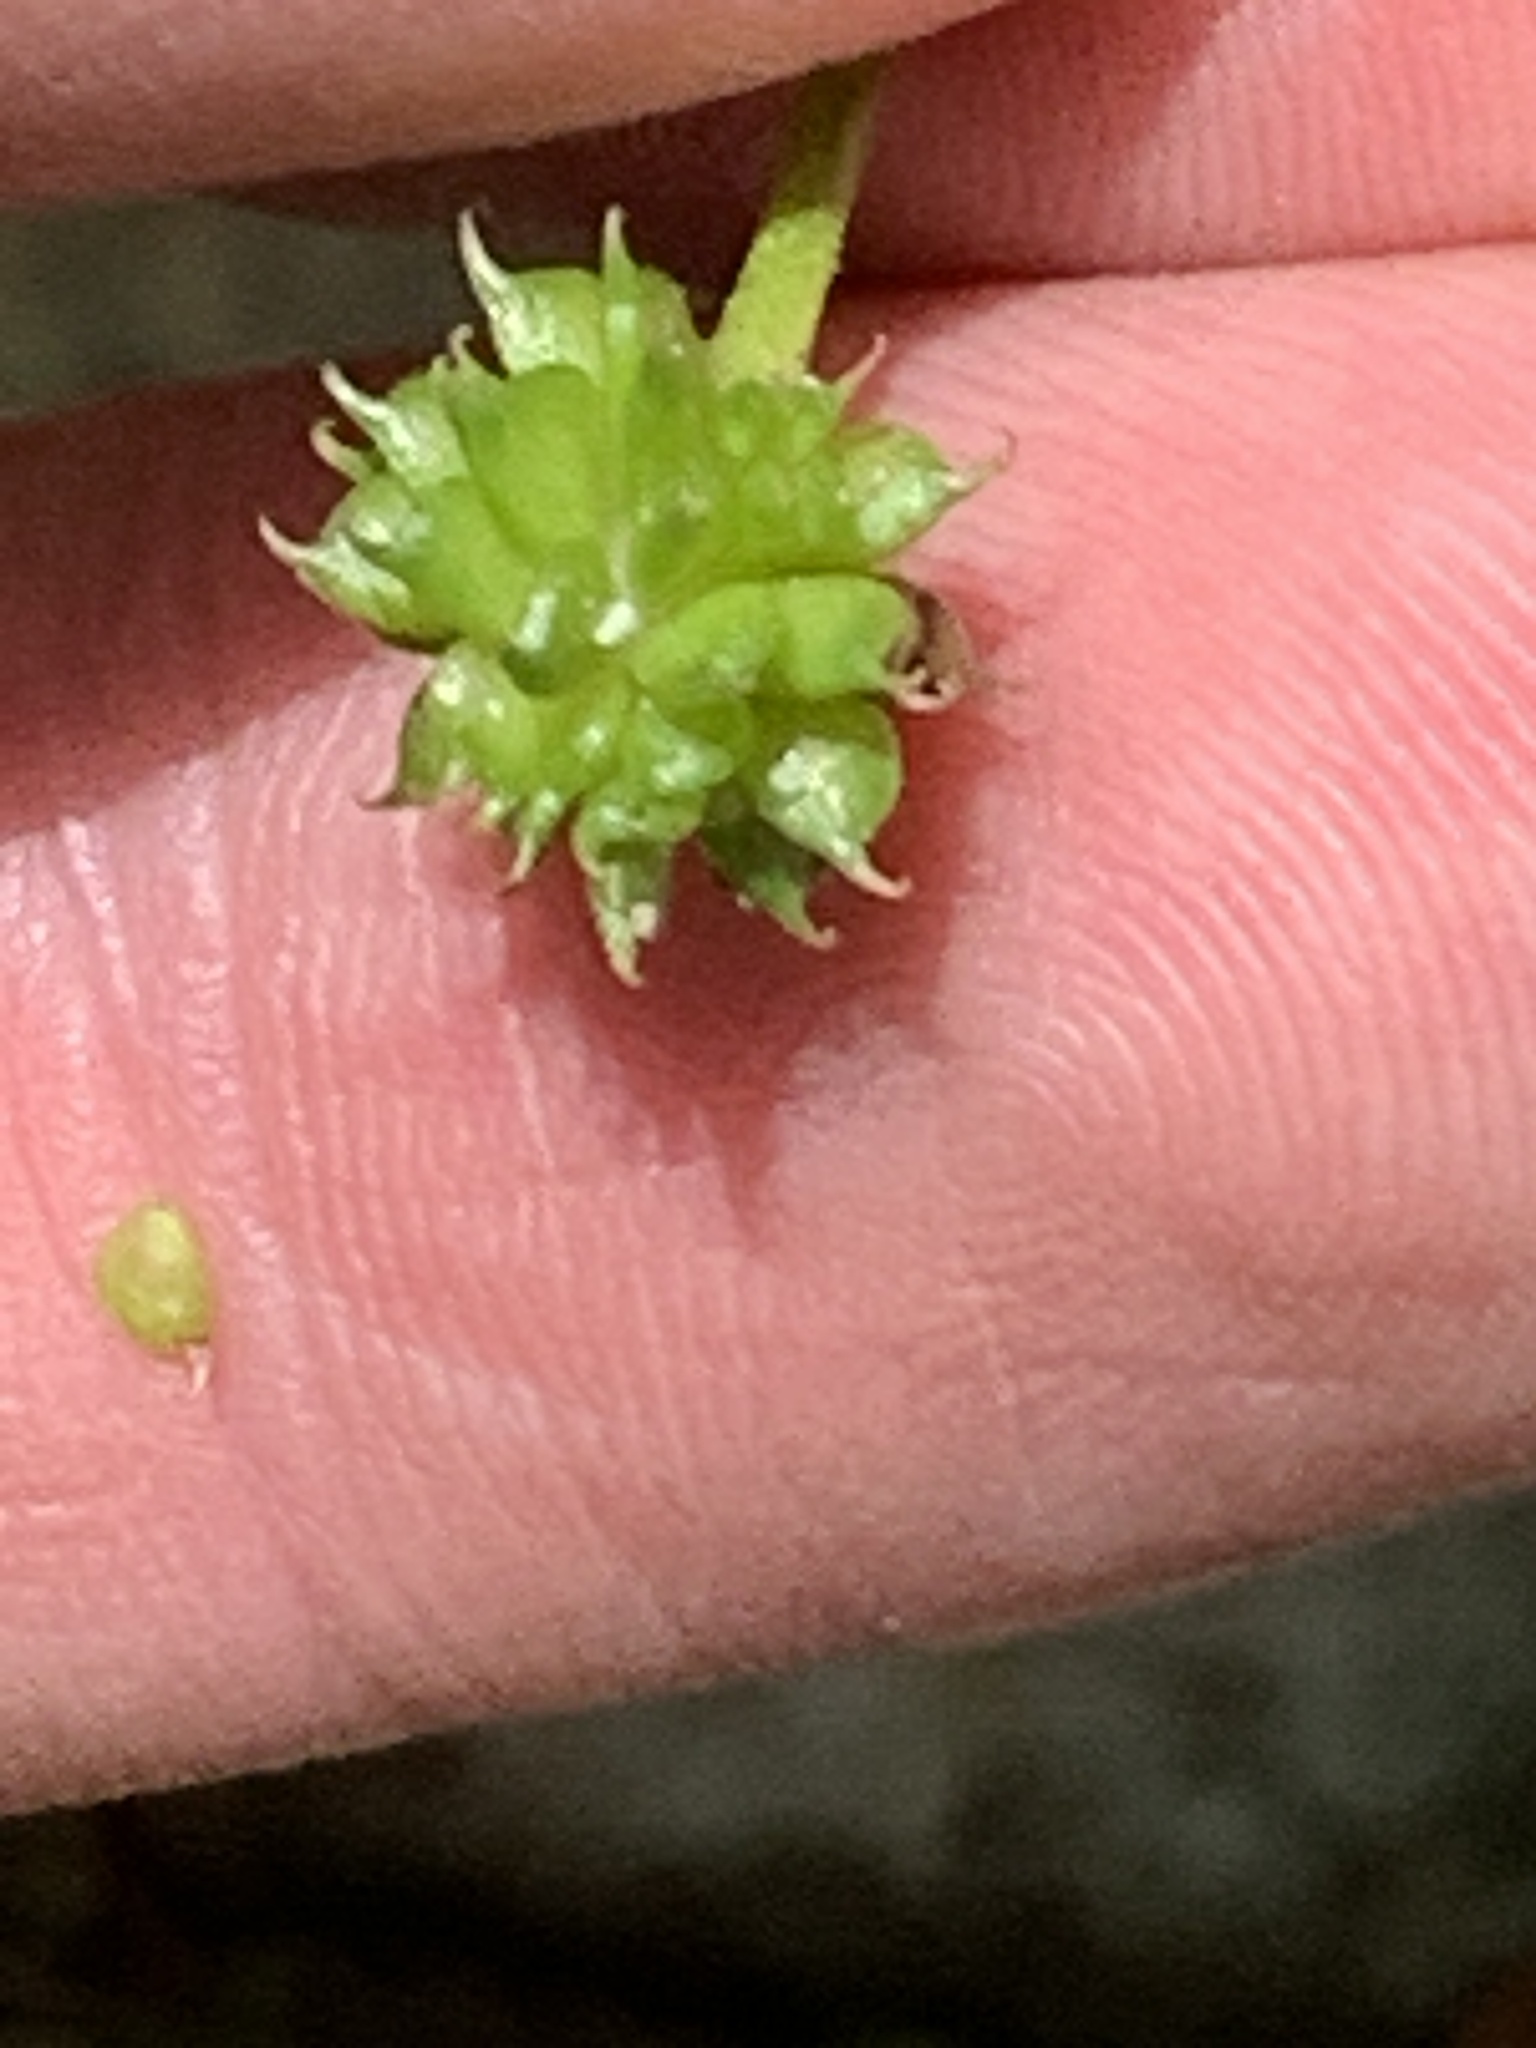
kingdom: Plantae
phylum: Tracheophyta
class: Magnoliopsida
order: Ranunculales
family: Ranunculaceae
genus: Ranunculus
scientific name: Ranunculus recurvatus
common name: Blisterwort
